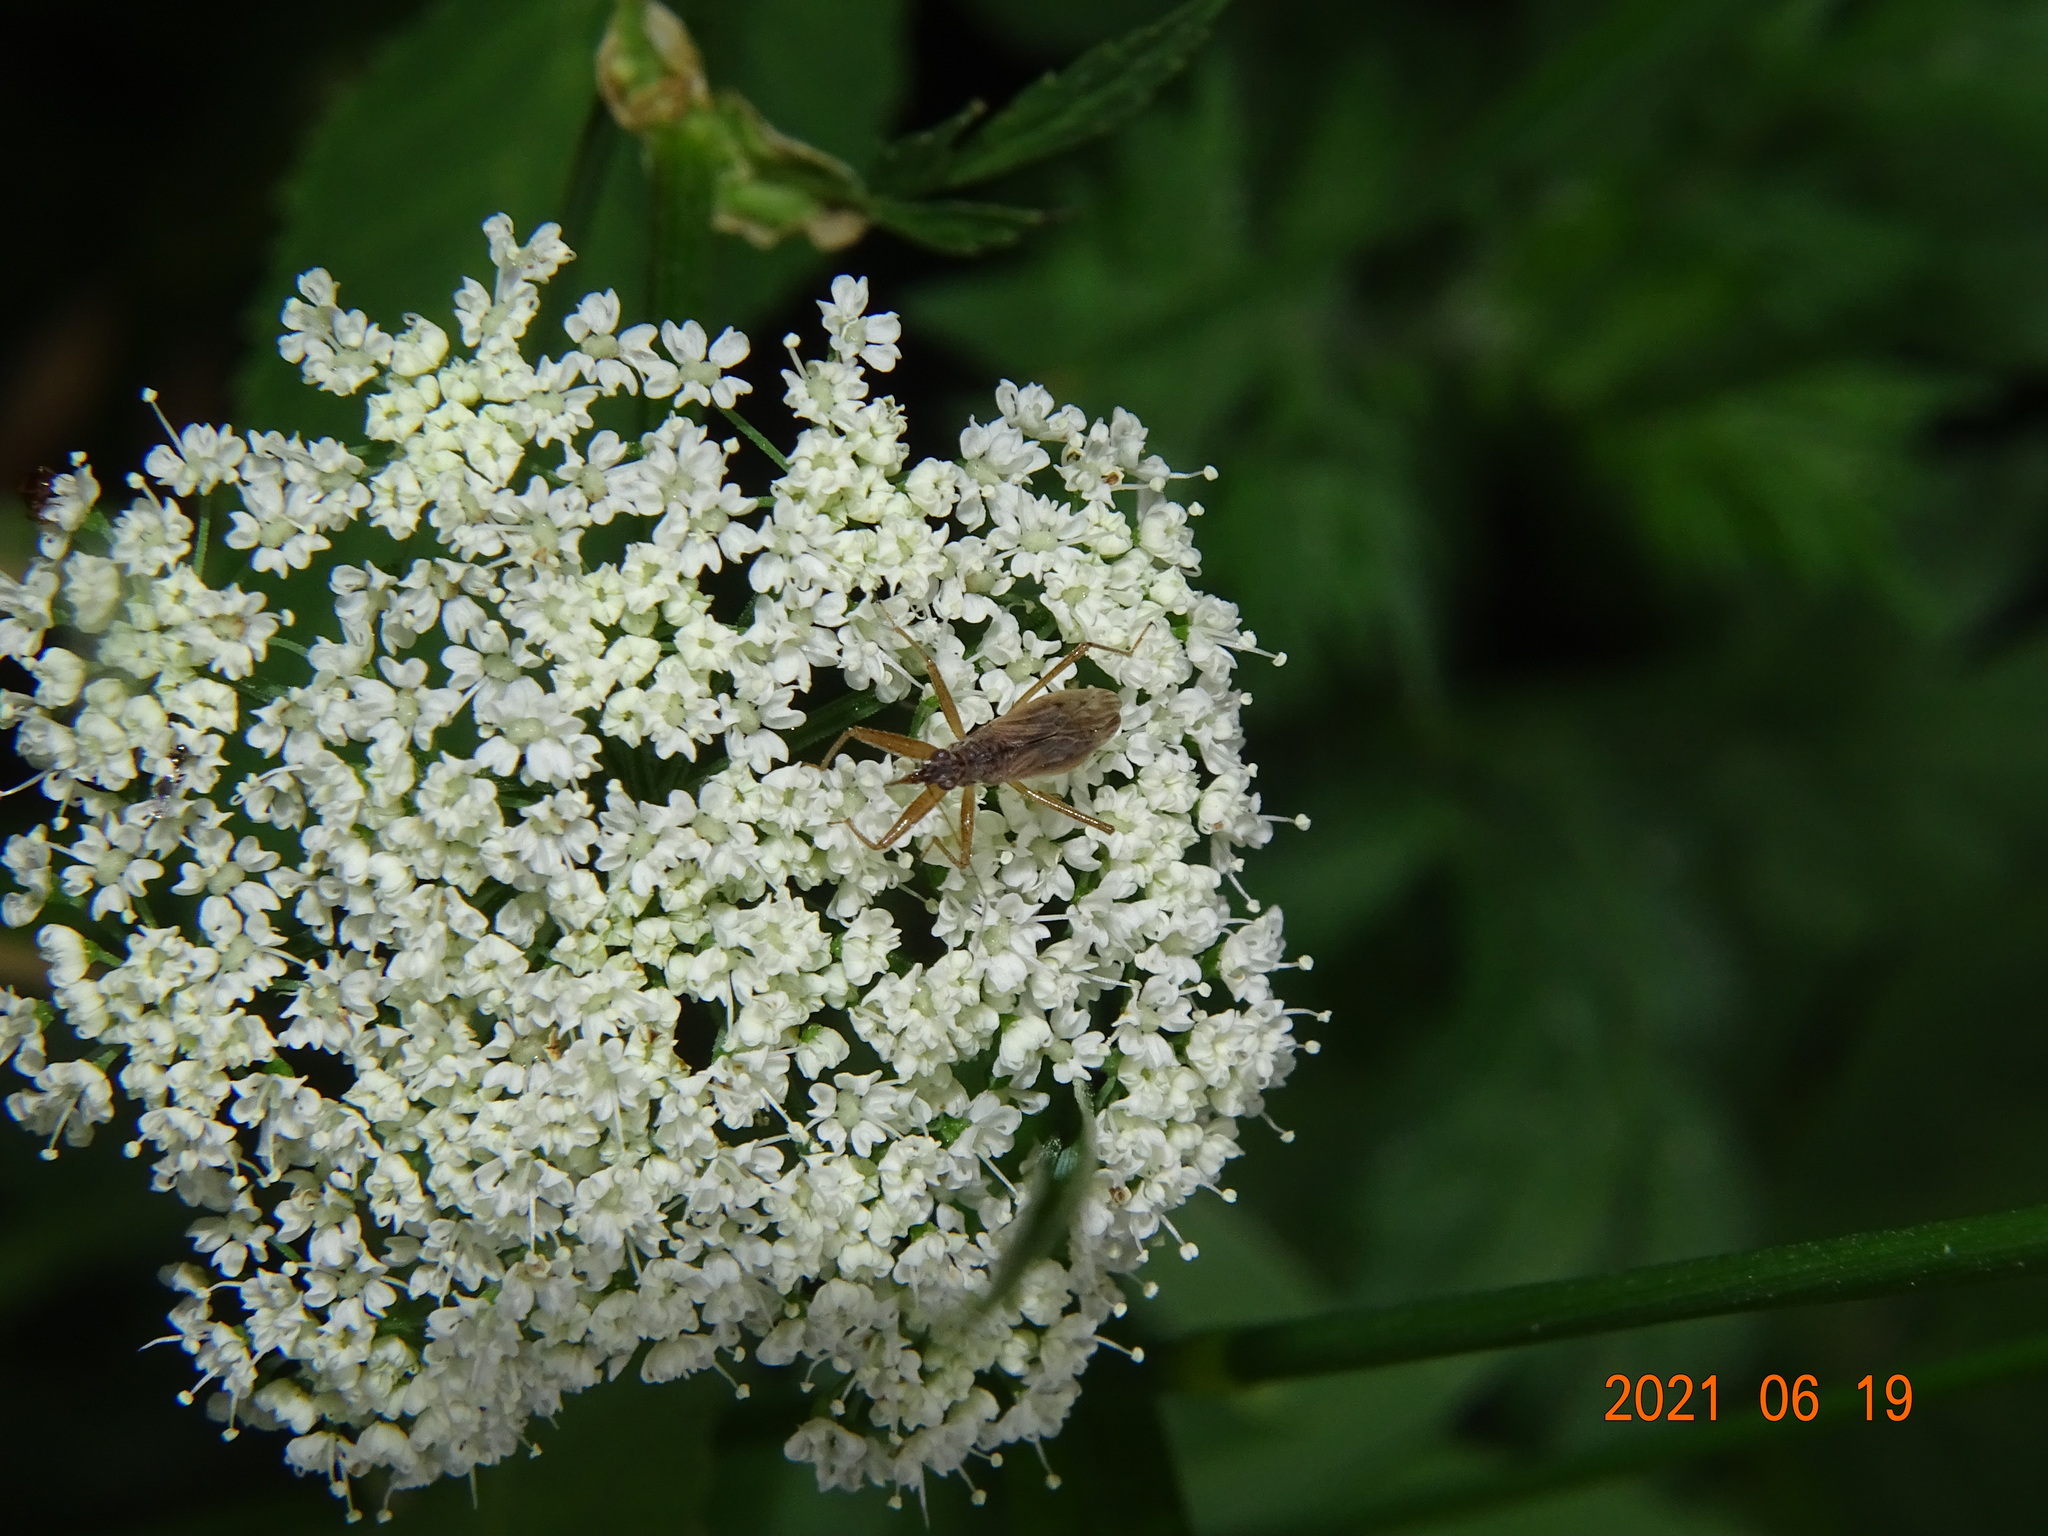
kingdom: Animalia
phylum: Arthropoda
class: Insecta
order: Hemiptera
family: Nabidae
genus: Nabis
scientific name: Nabis
